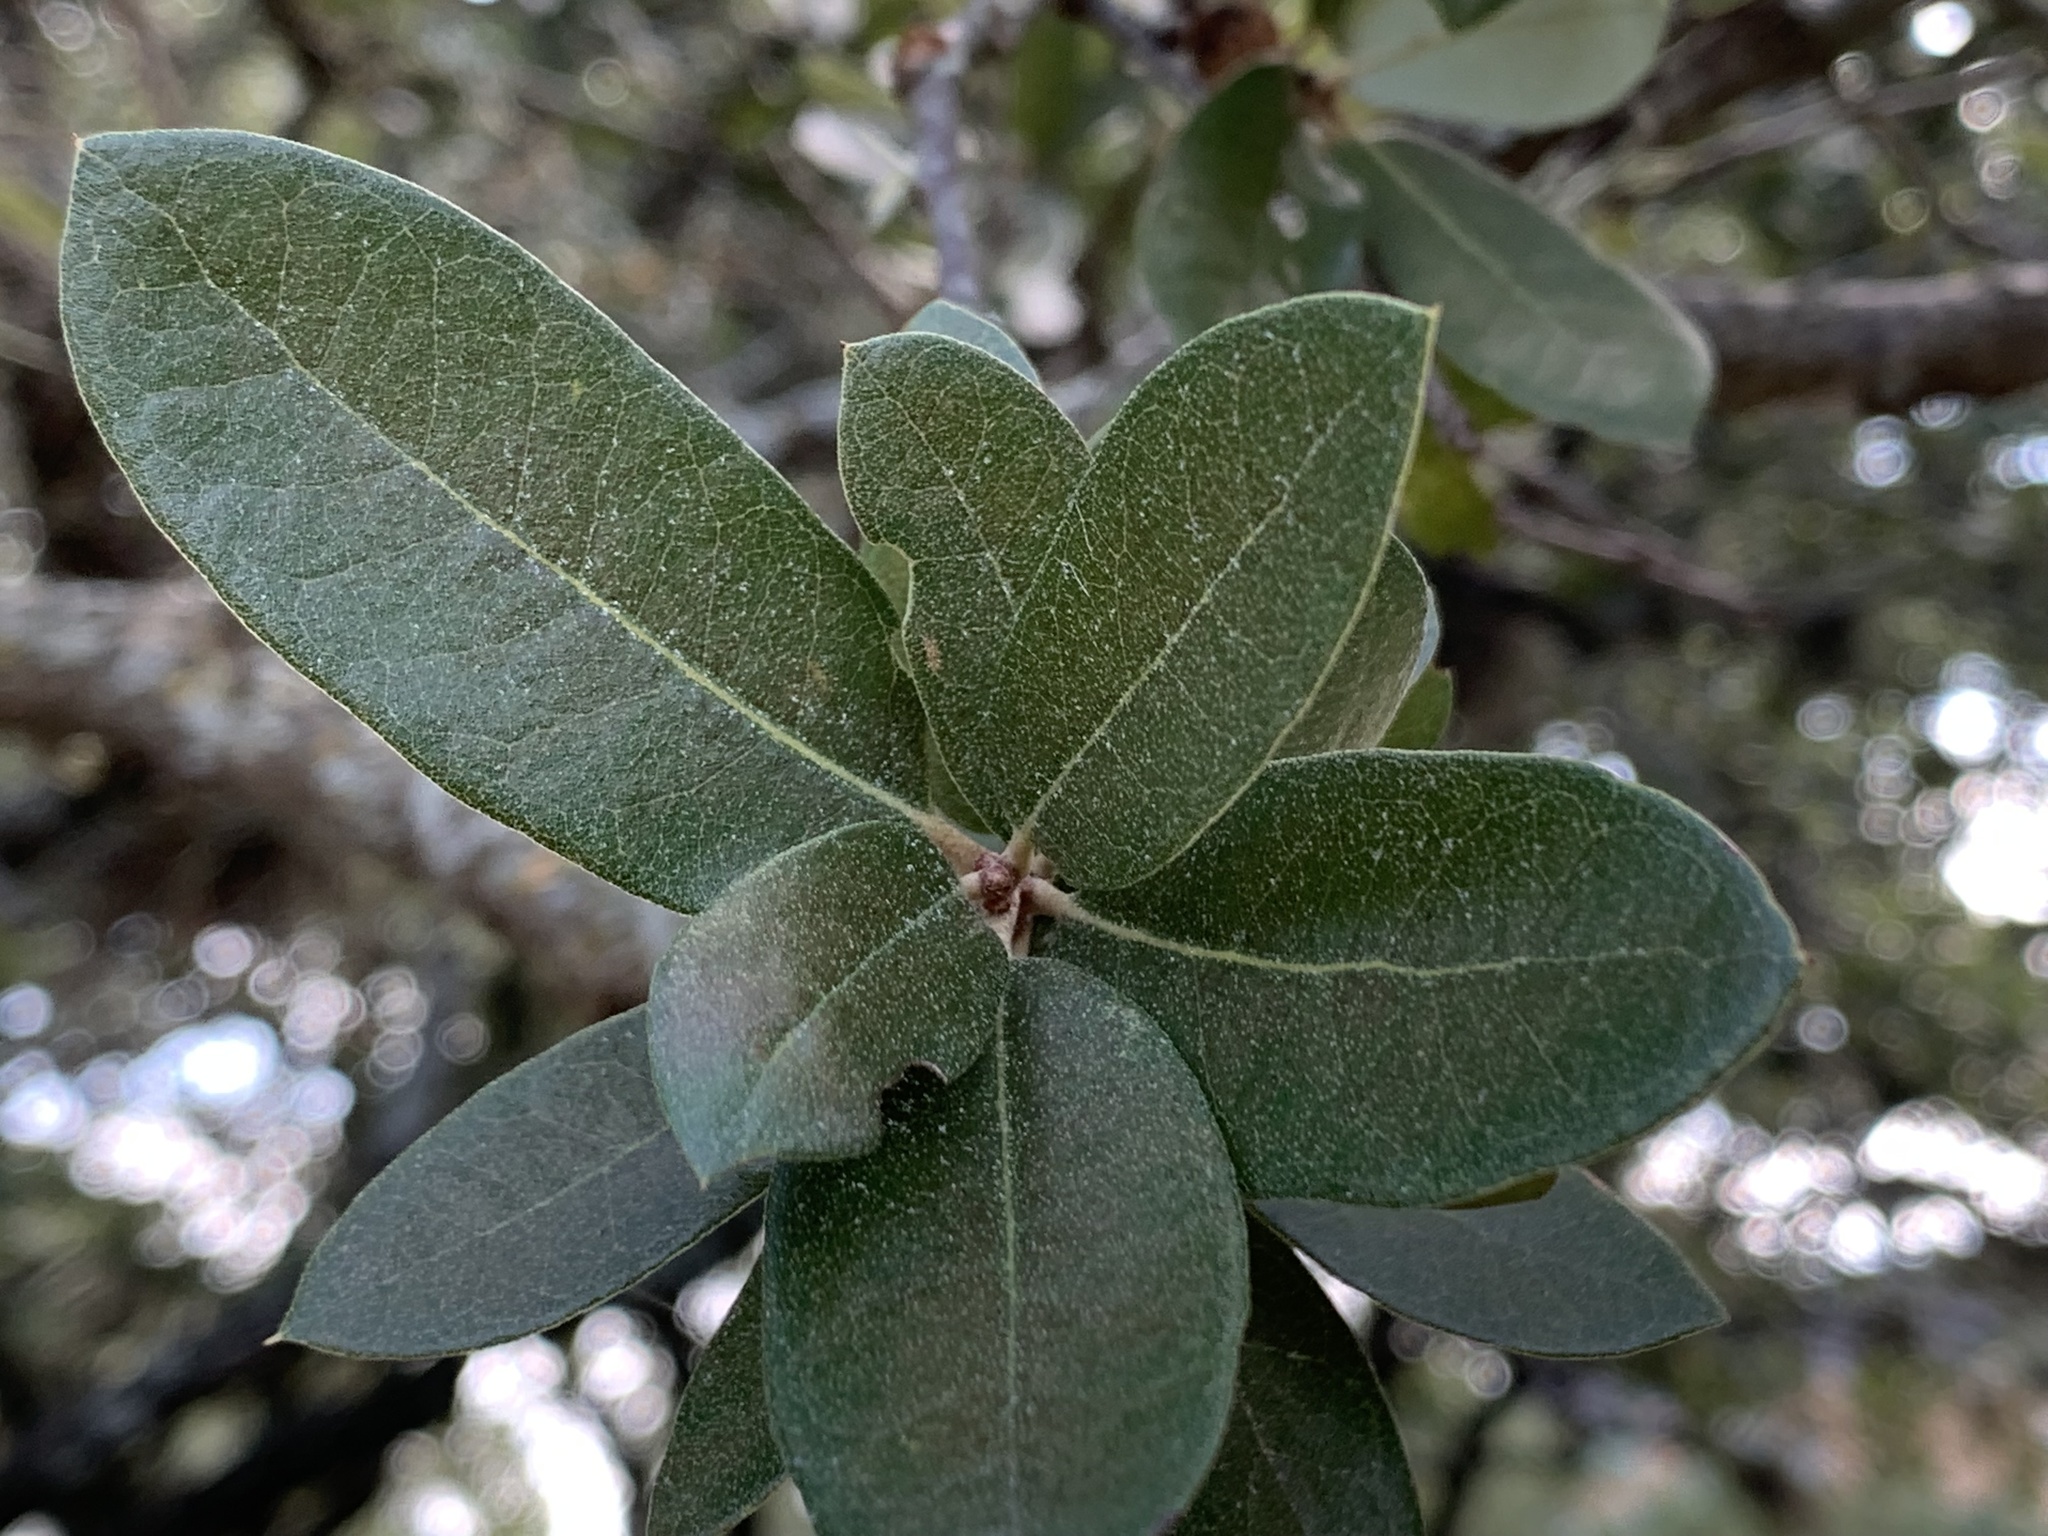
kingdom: Plantae
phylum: Tracheophyta
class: Magnoliopsida
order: Fagales
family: Fagaceae
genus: Quercus
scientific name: Quercus fusiformis
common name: Texas live oak
